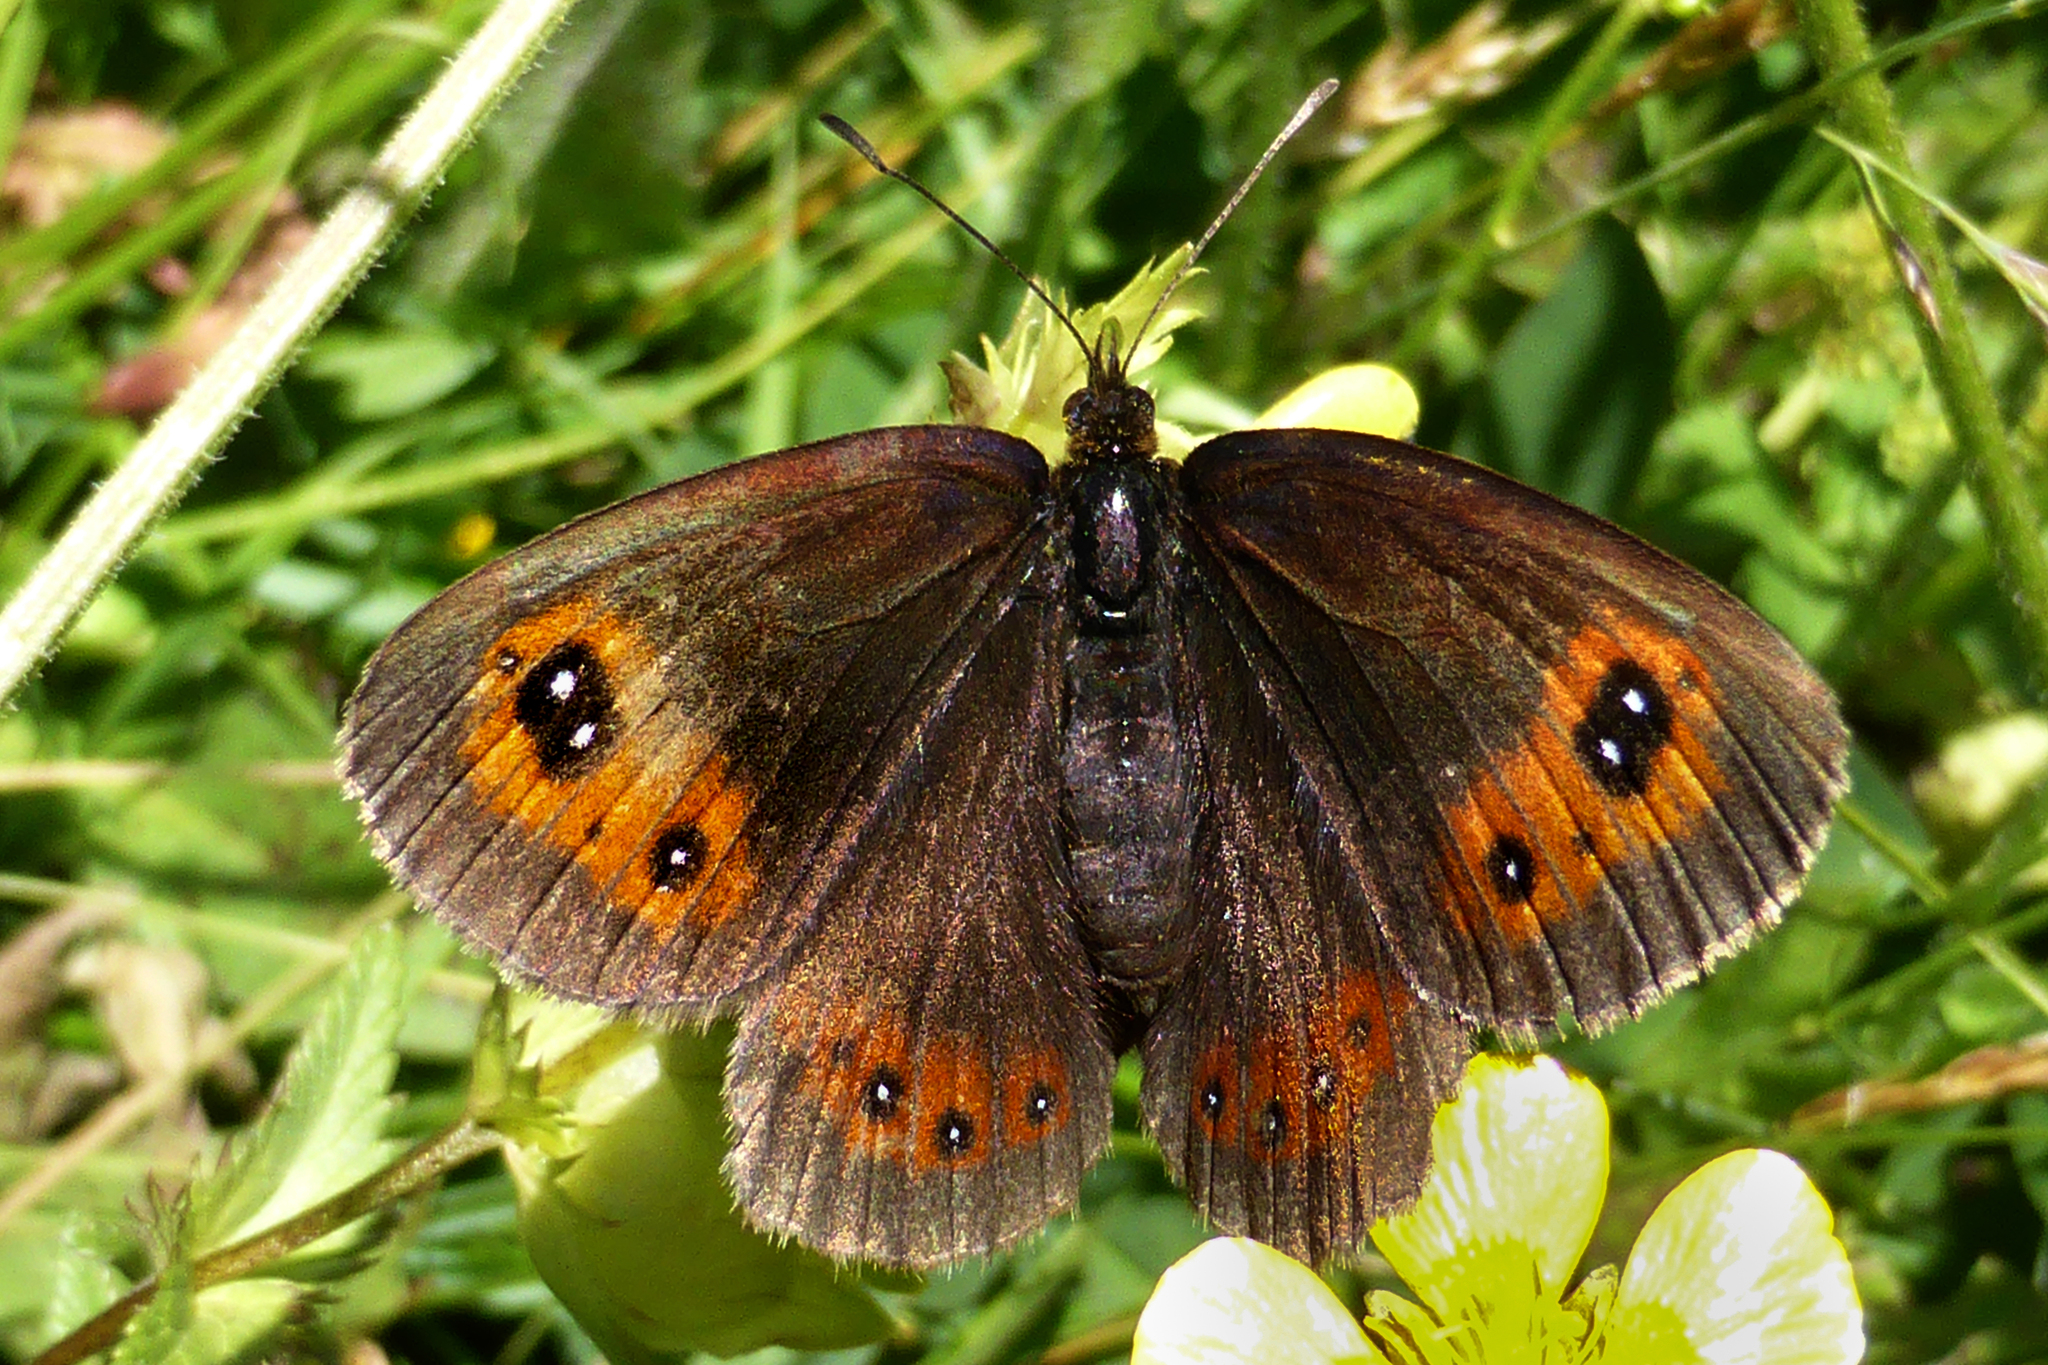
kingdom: Animalia
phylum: Arthropoda
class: Insecta
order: Lepidoptera
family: Nymphalidae
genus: Erebia
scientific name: Erebia aethiops
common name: Scotch argus
